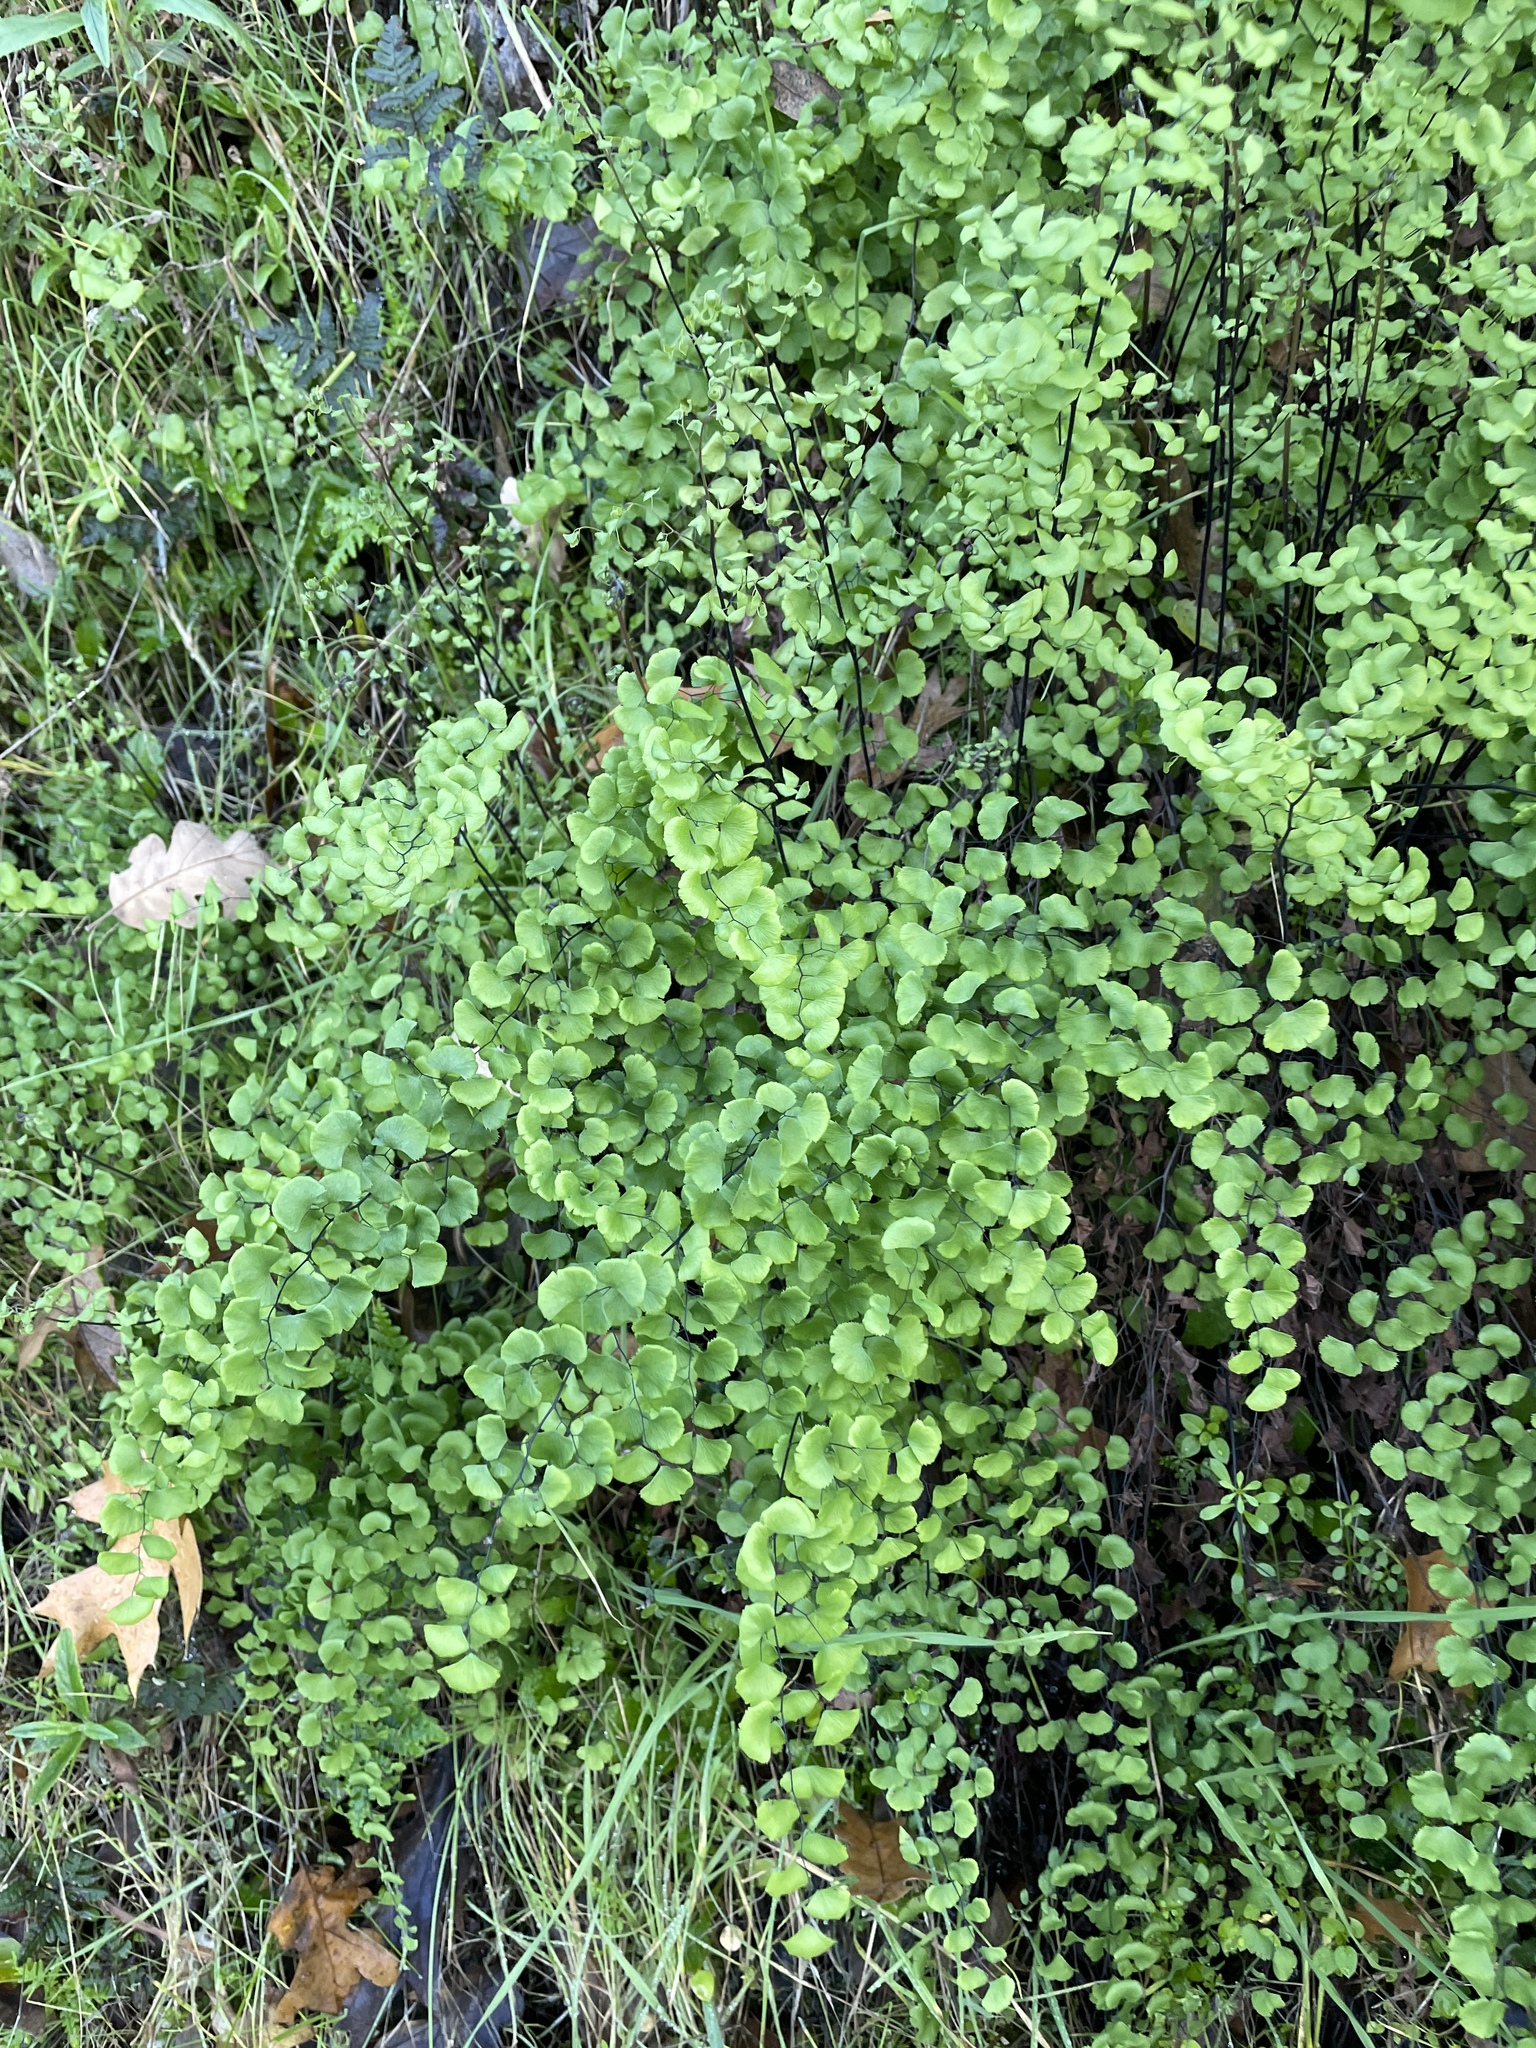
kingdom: Plantae
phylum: Tracheophyta
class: Polypodiopsida
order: Polypodiales
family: Pteridaceae
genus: Adiantum
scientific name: Adiantum jordanii
